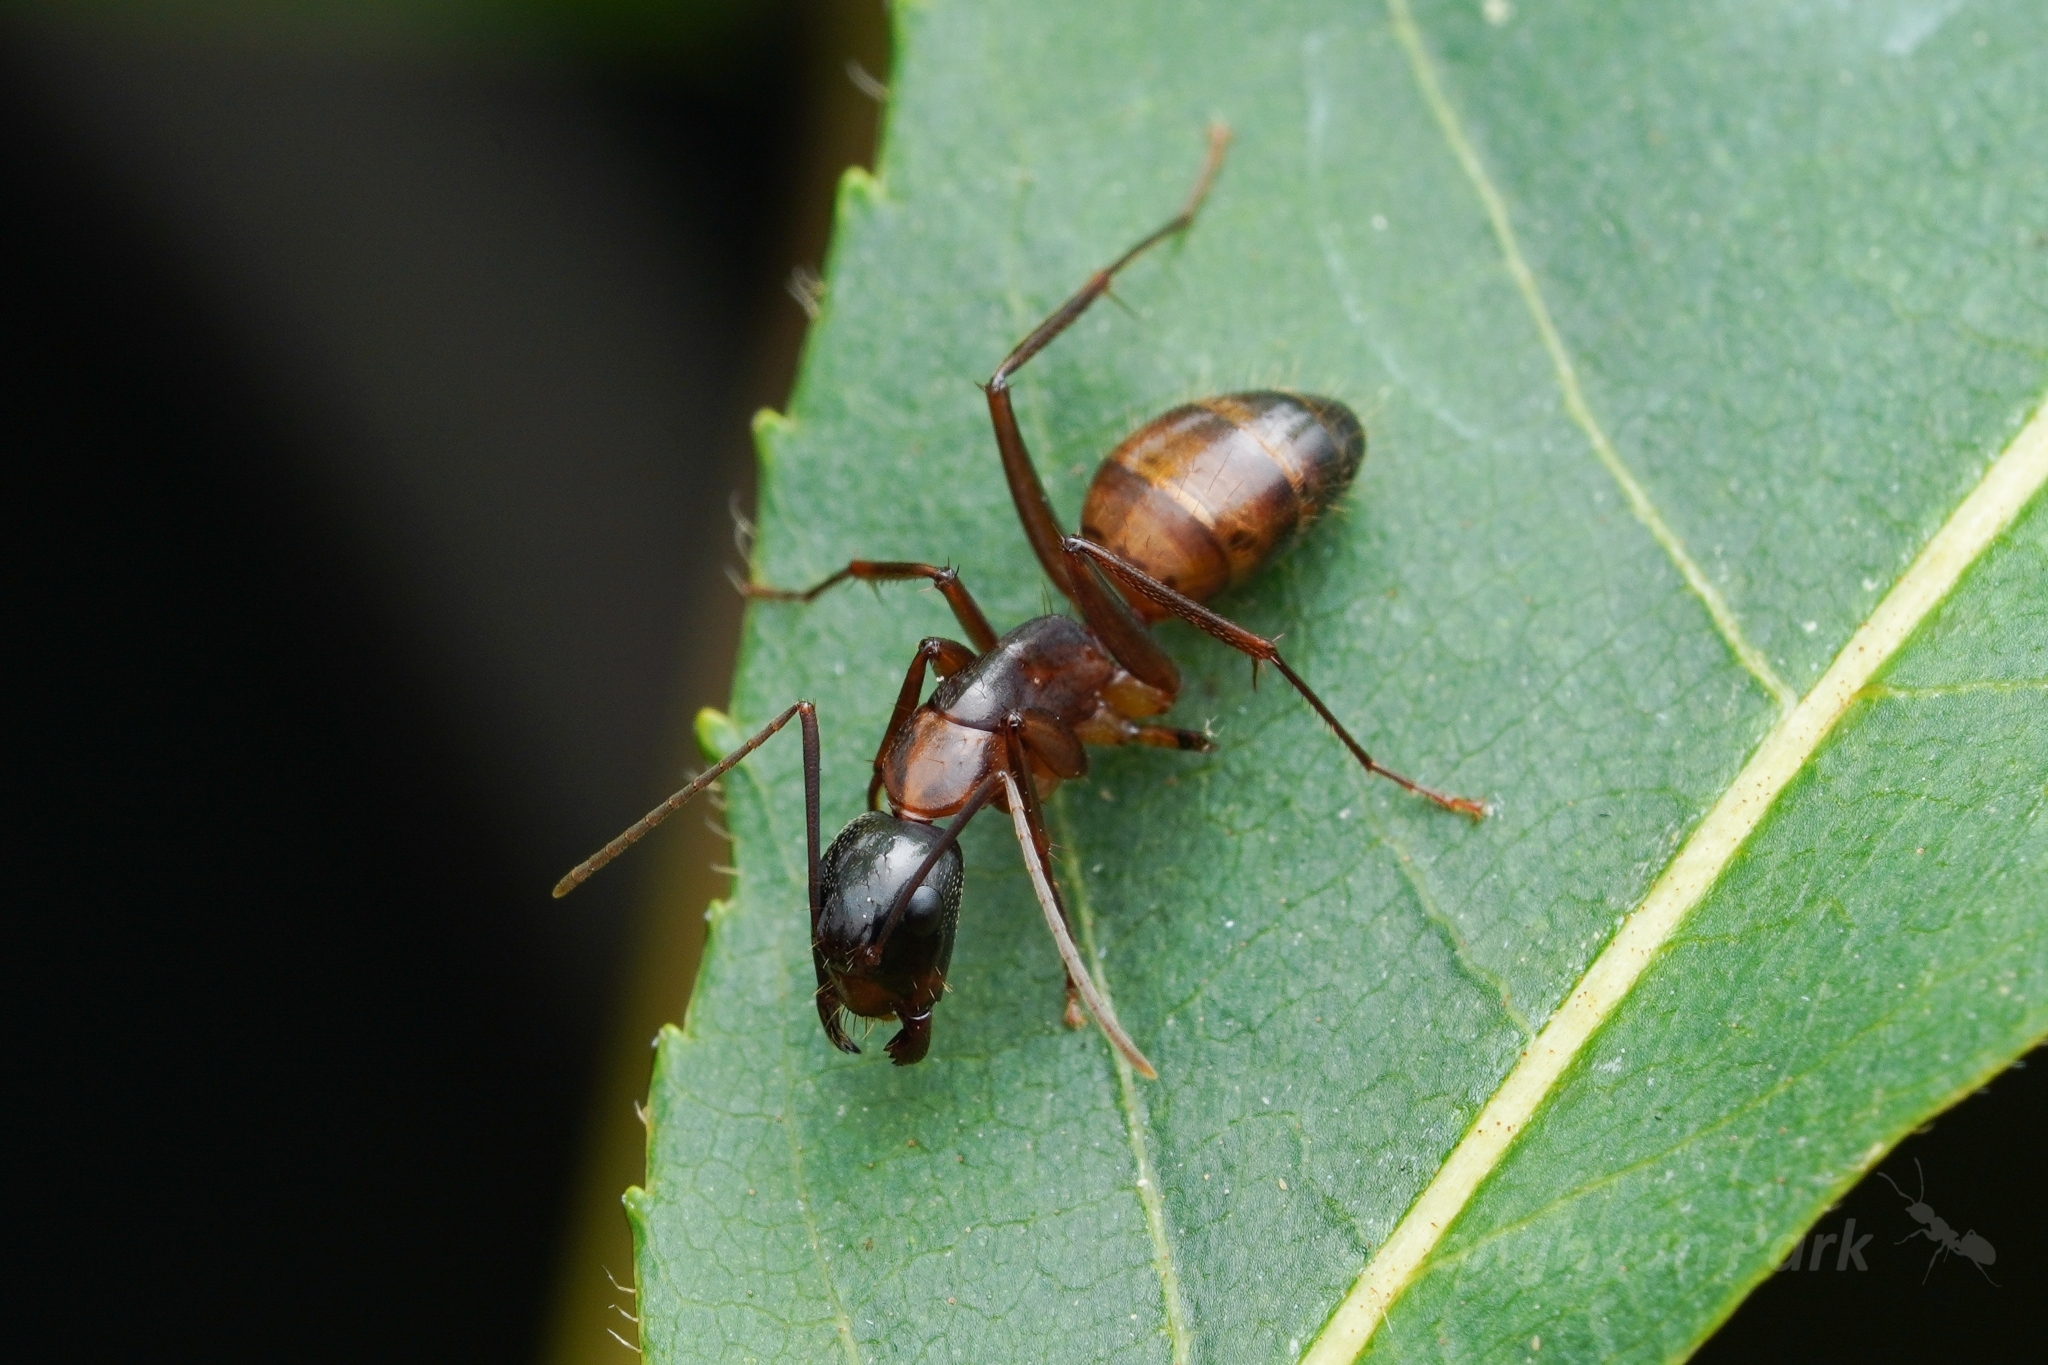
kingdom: Animalia
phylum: Arthropoda
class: Insecta
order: Hymenoptera
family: Formicidae
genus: Camponotus
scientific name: Camponotus americanus
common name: American carpenter ant
